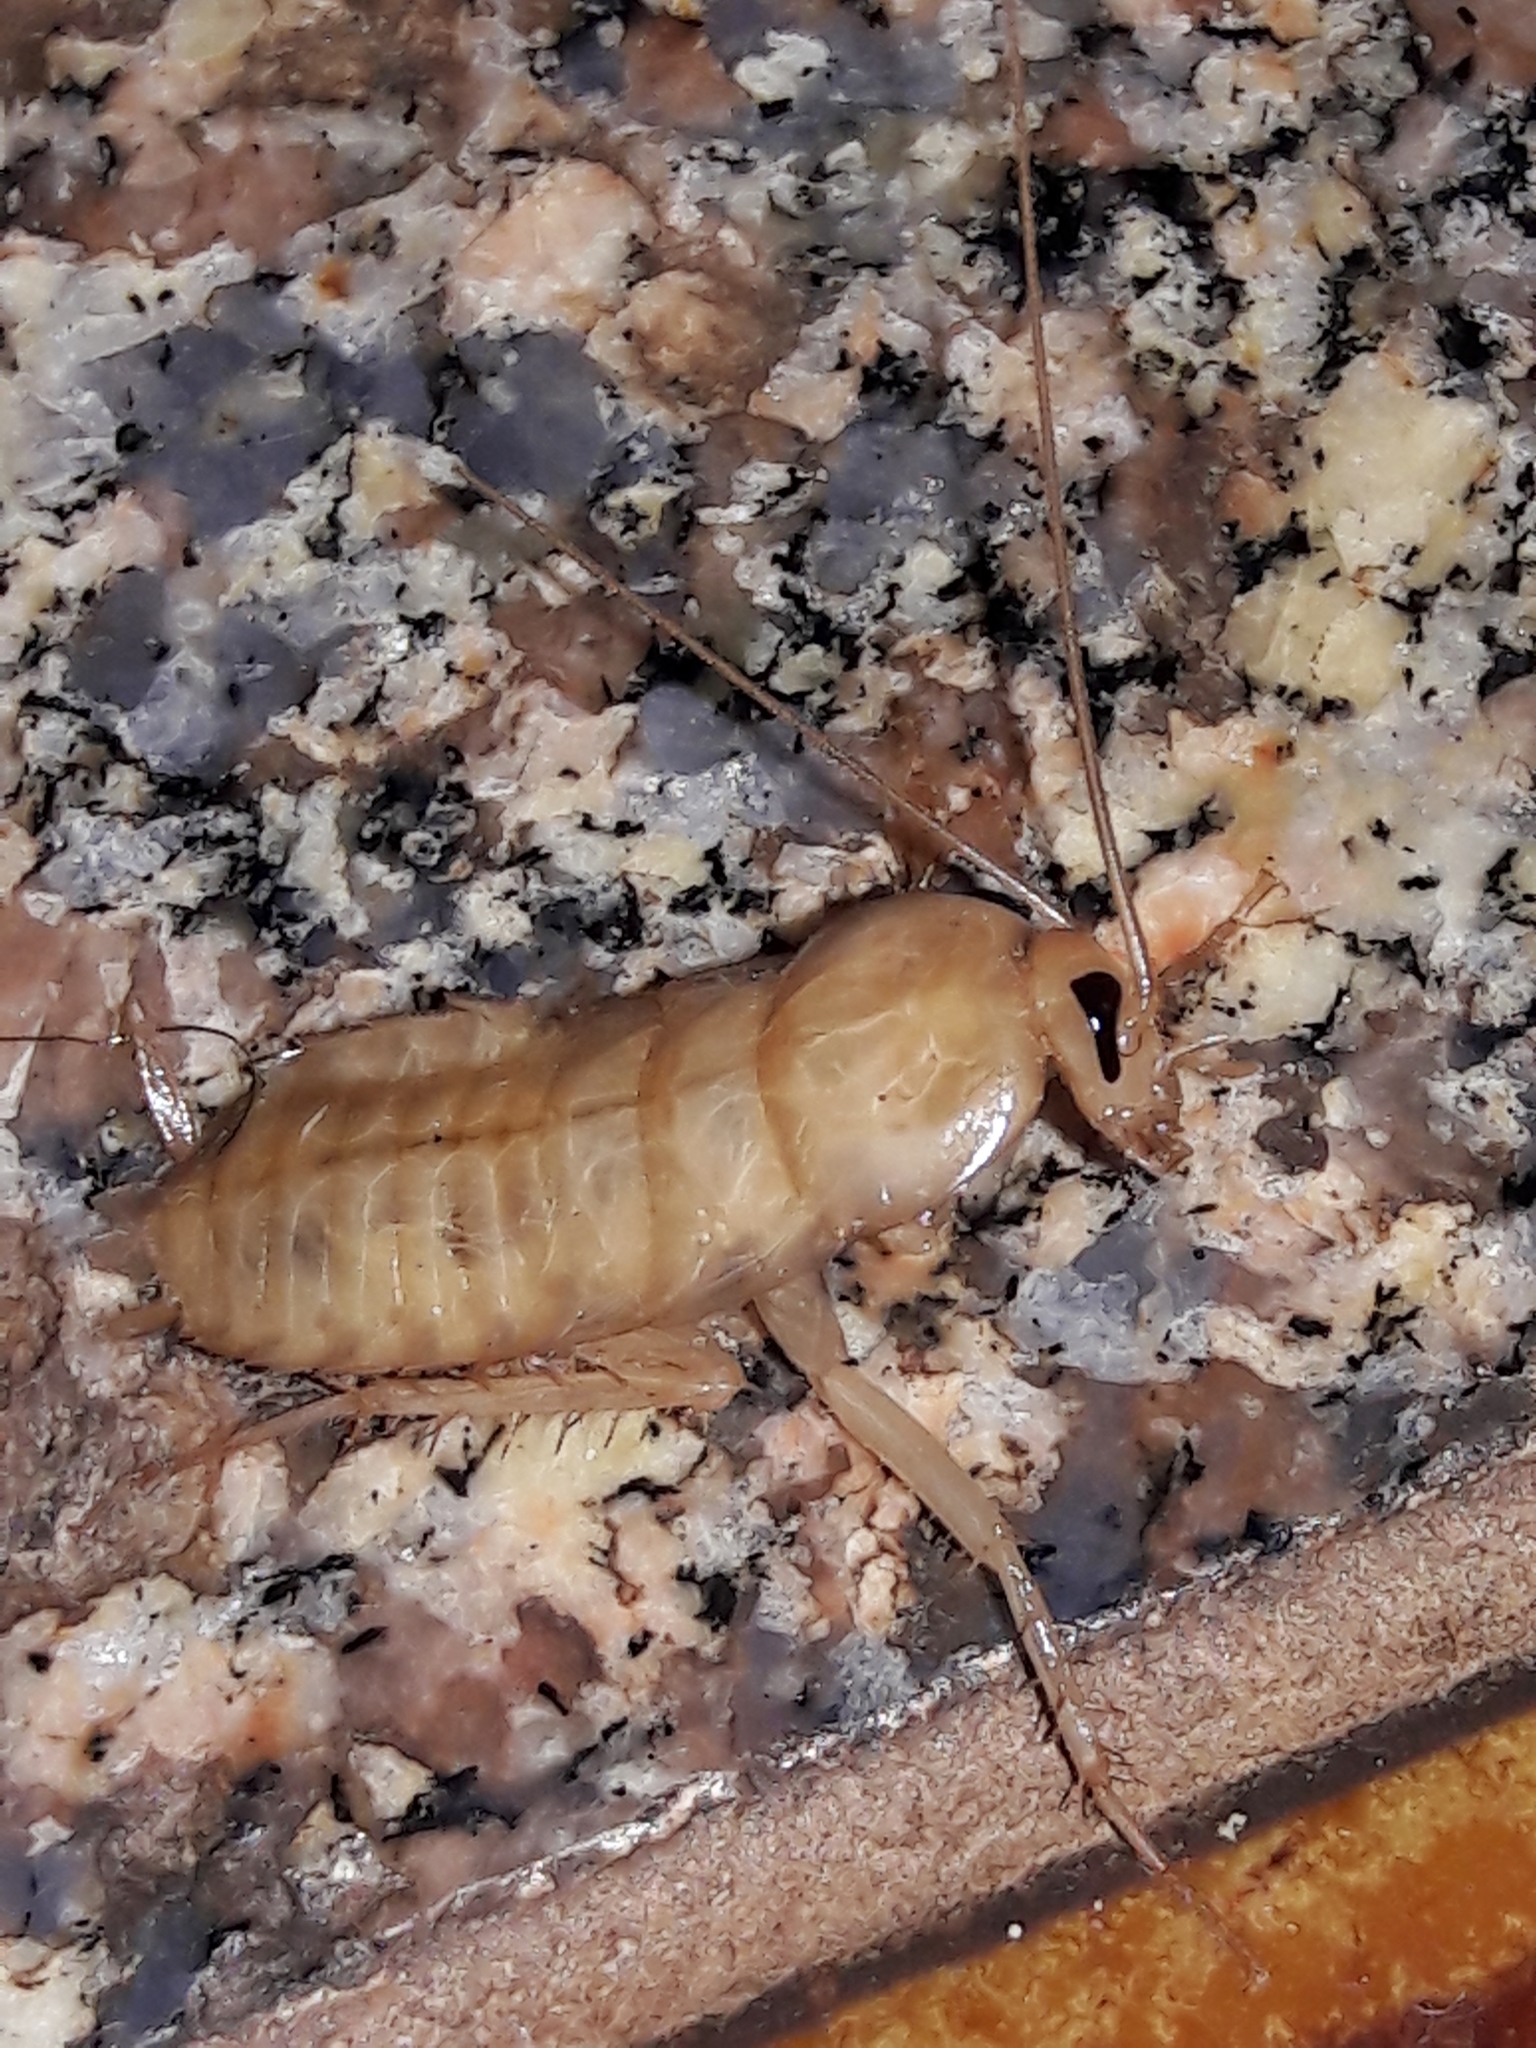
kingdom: Animalia
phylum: Arthropoda
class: Insecta
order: Blattodea
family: Blattidae
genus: Periplaneta
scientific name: Periplaneta americana
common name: American cockroach
